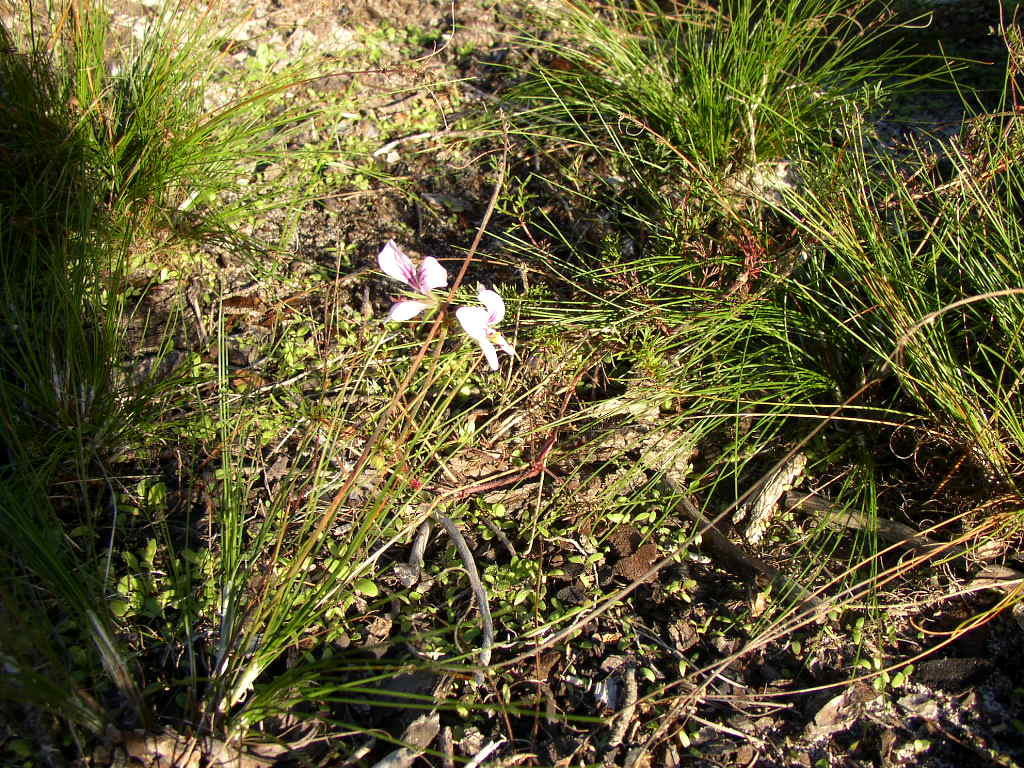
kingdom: Plantae
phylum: Tracheophyta
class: Magnoliopsida
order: Geraniales
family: Geraniaceae
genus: Pelargonium
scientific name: Pelargonium myrrhifolium
